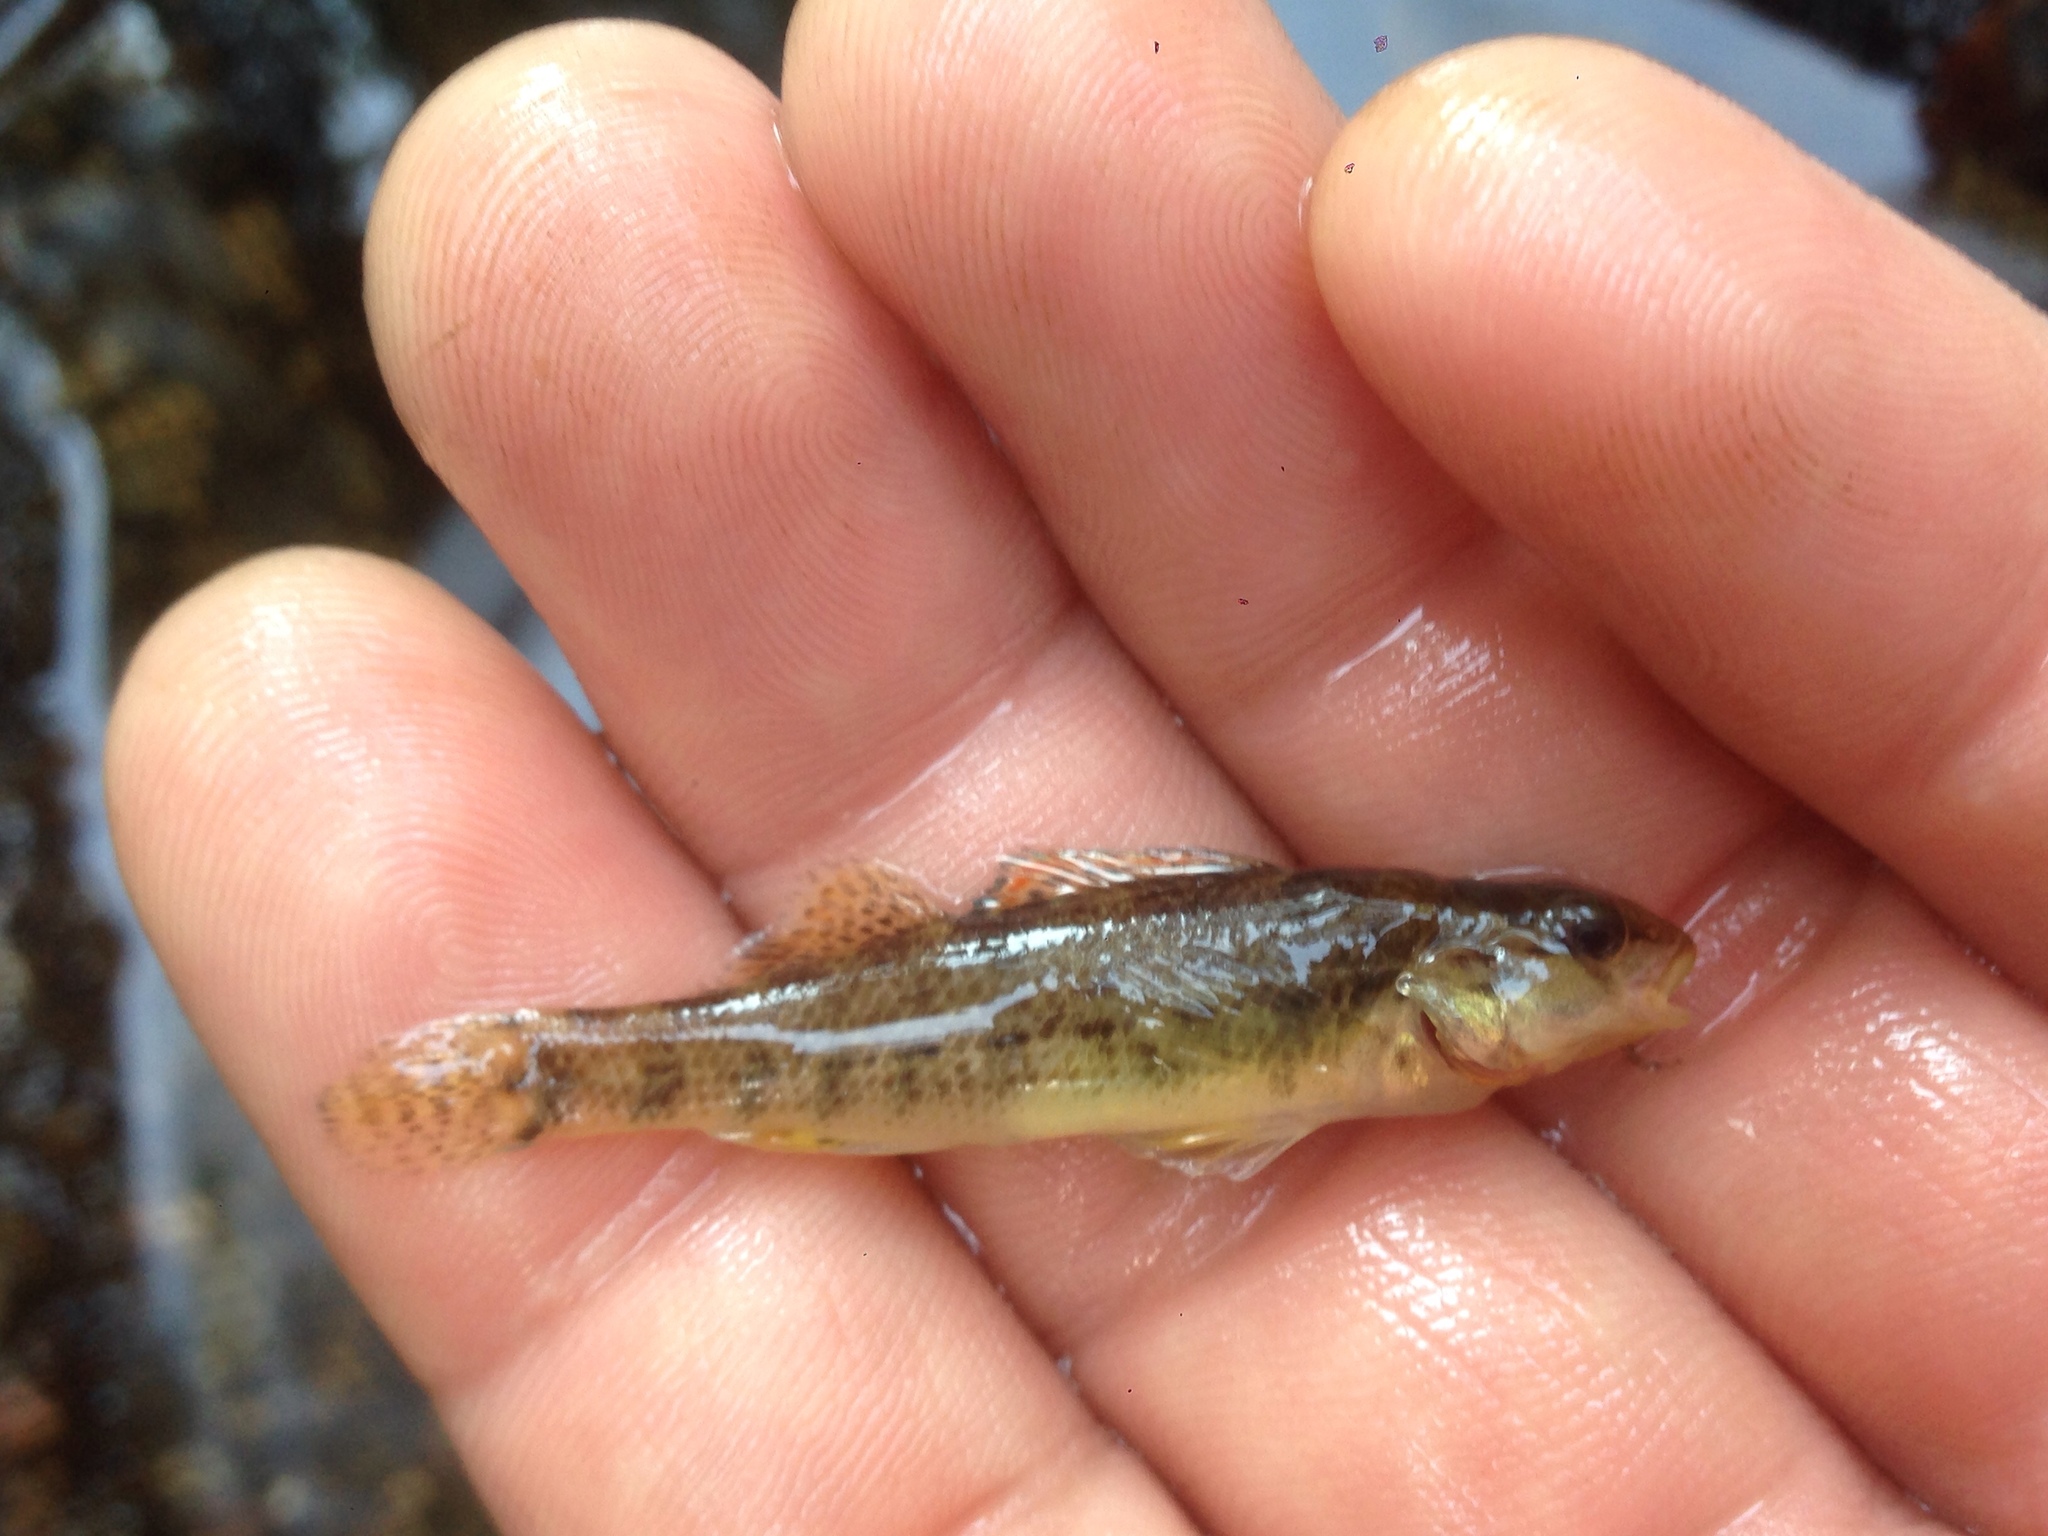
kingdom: Animalia
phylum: Chordata
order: Perciformes
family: Percidae
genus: Etheostoma
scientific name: Etheostoma caeruleum
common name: Rainbow darter
